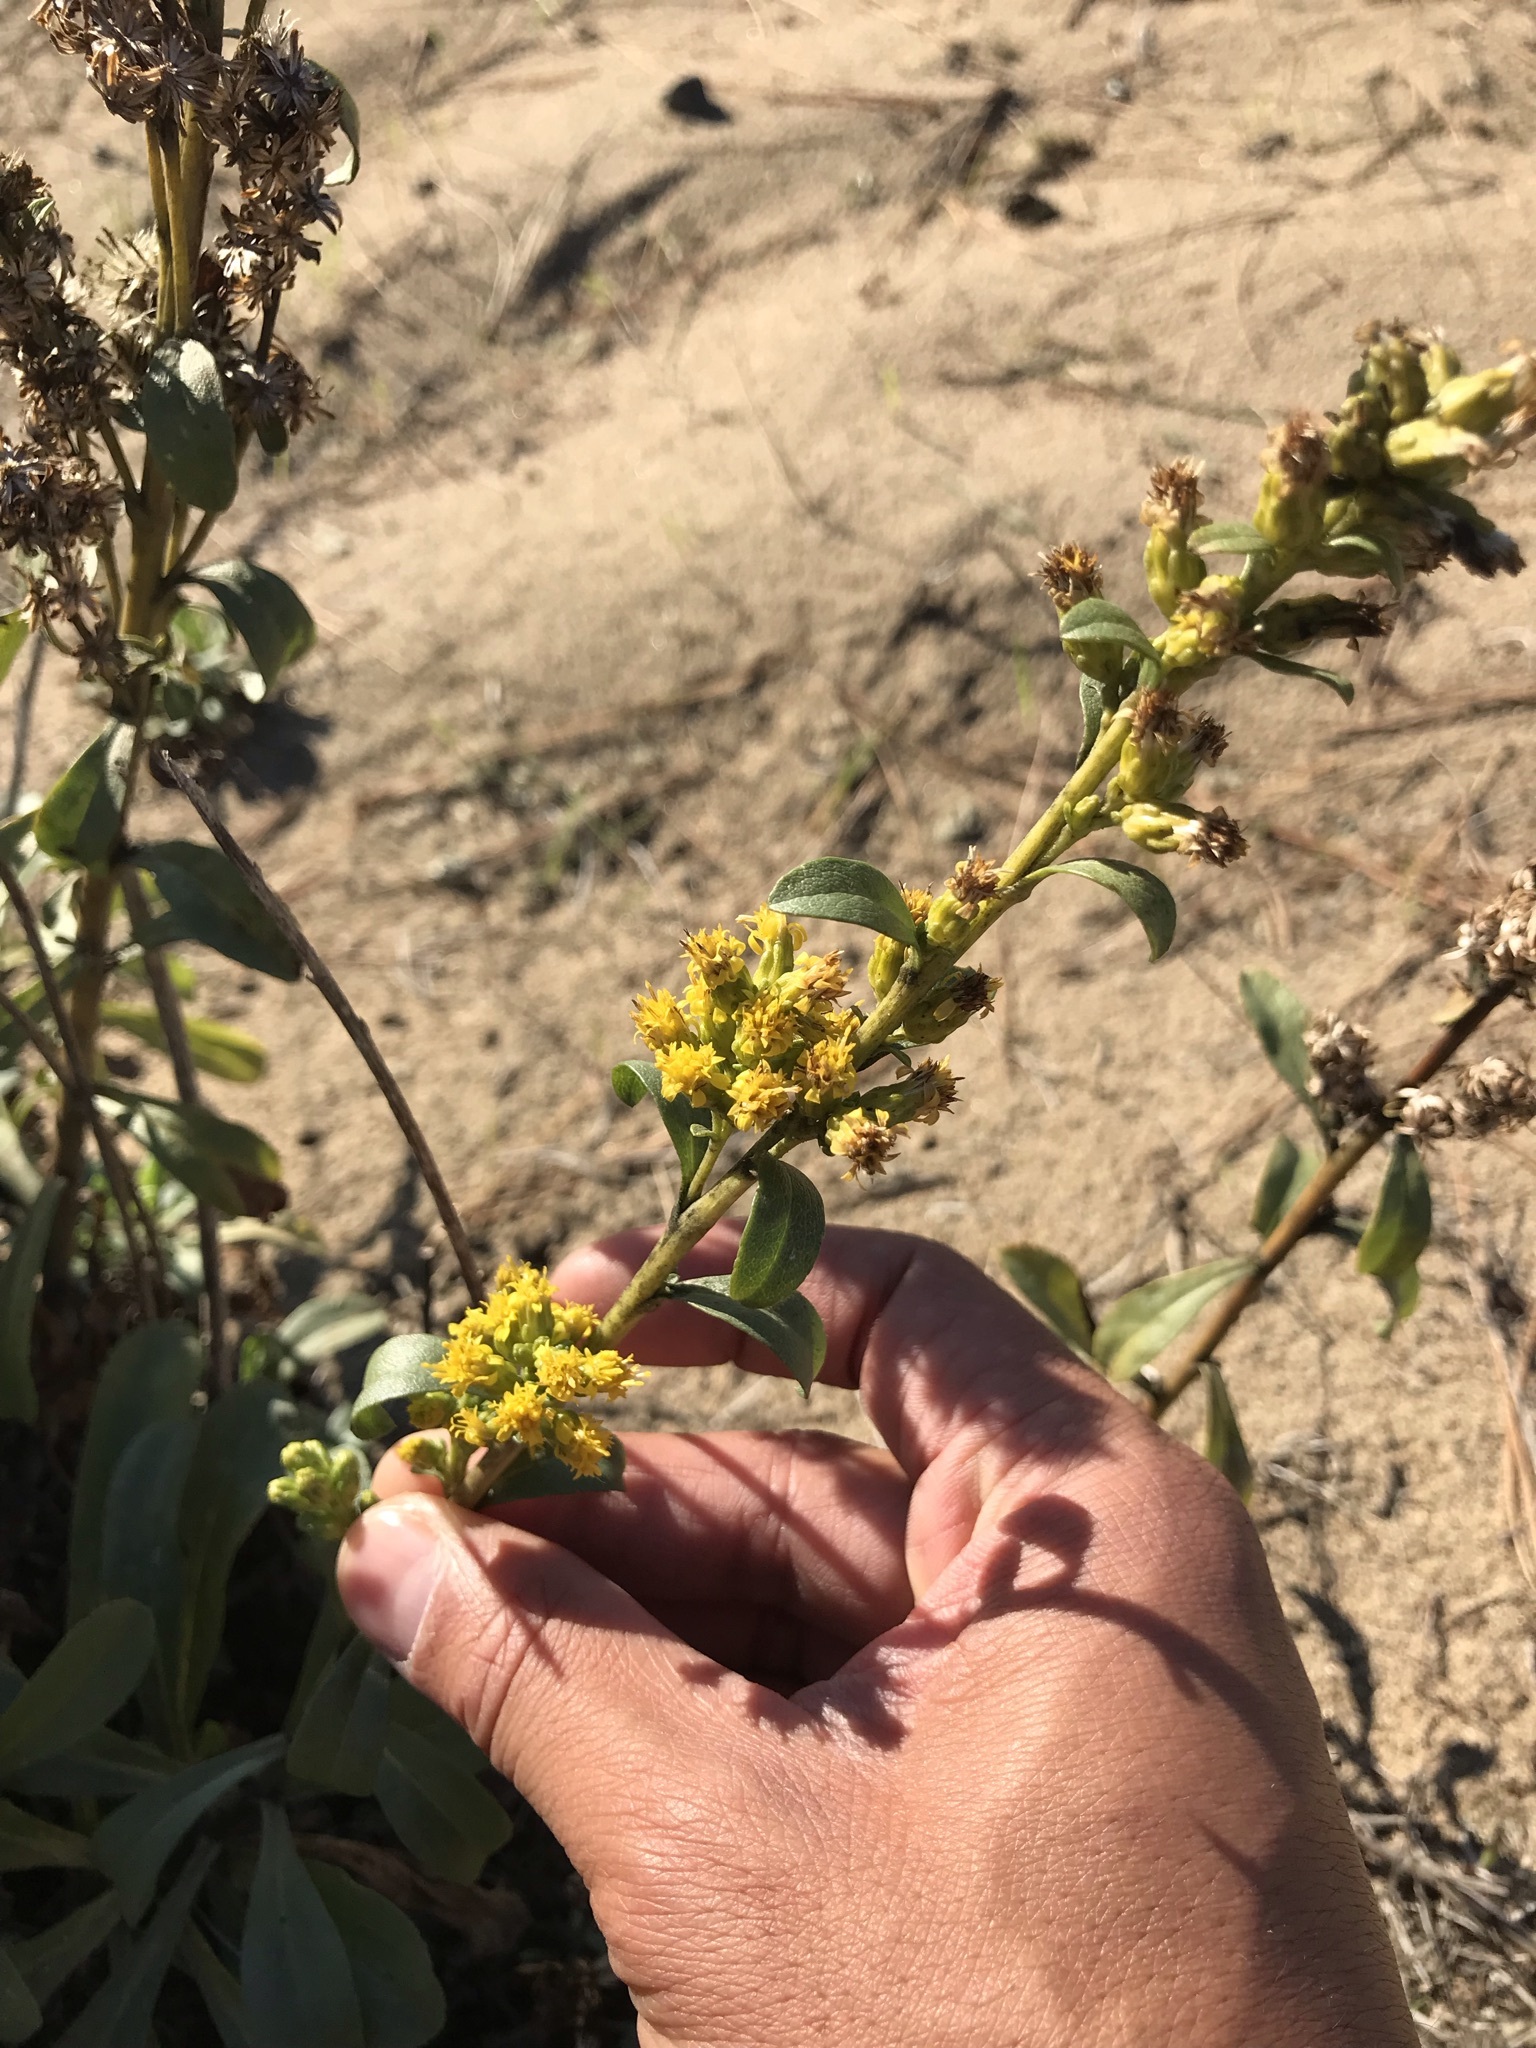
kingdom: Plantae
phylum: Tracheophyta
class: Magnoliopsida
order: Asterales
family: Asteraceae
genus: Solidago
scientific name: Solidago spathulata
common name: Coast goldenrod
